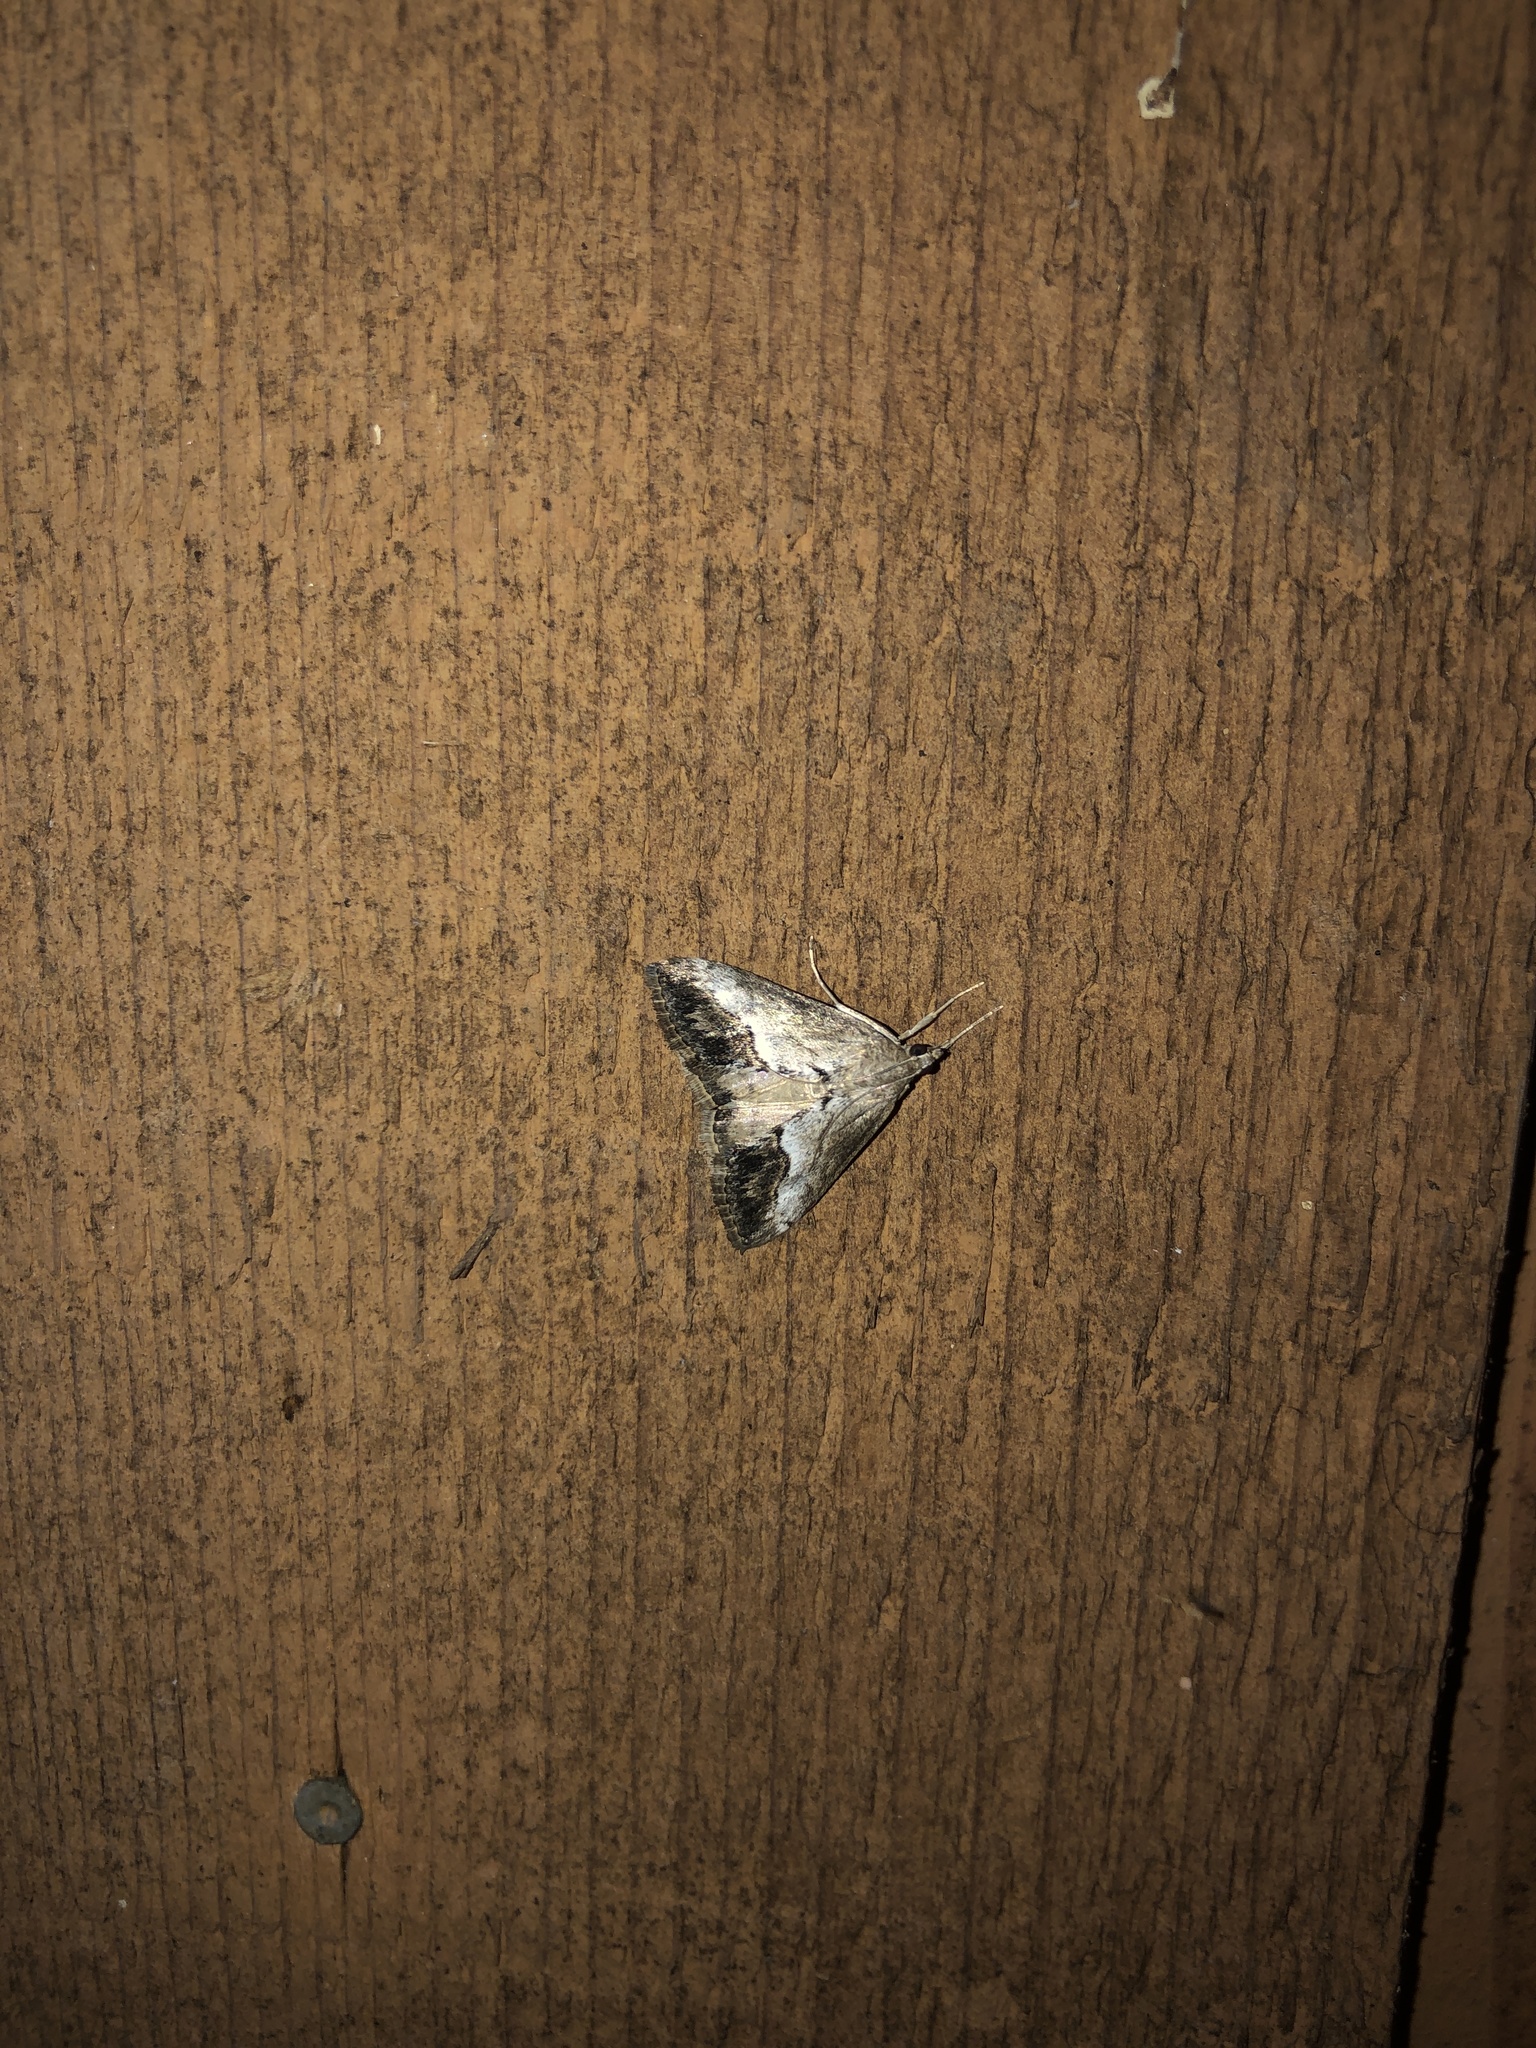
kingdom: Animalia
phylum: Arthropoda
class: Insecta
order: Lepidoptera
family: Crambidae
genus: Evergestis
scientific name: Evergestis funalis
